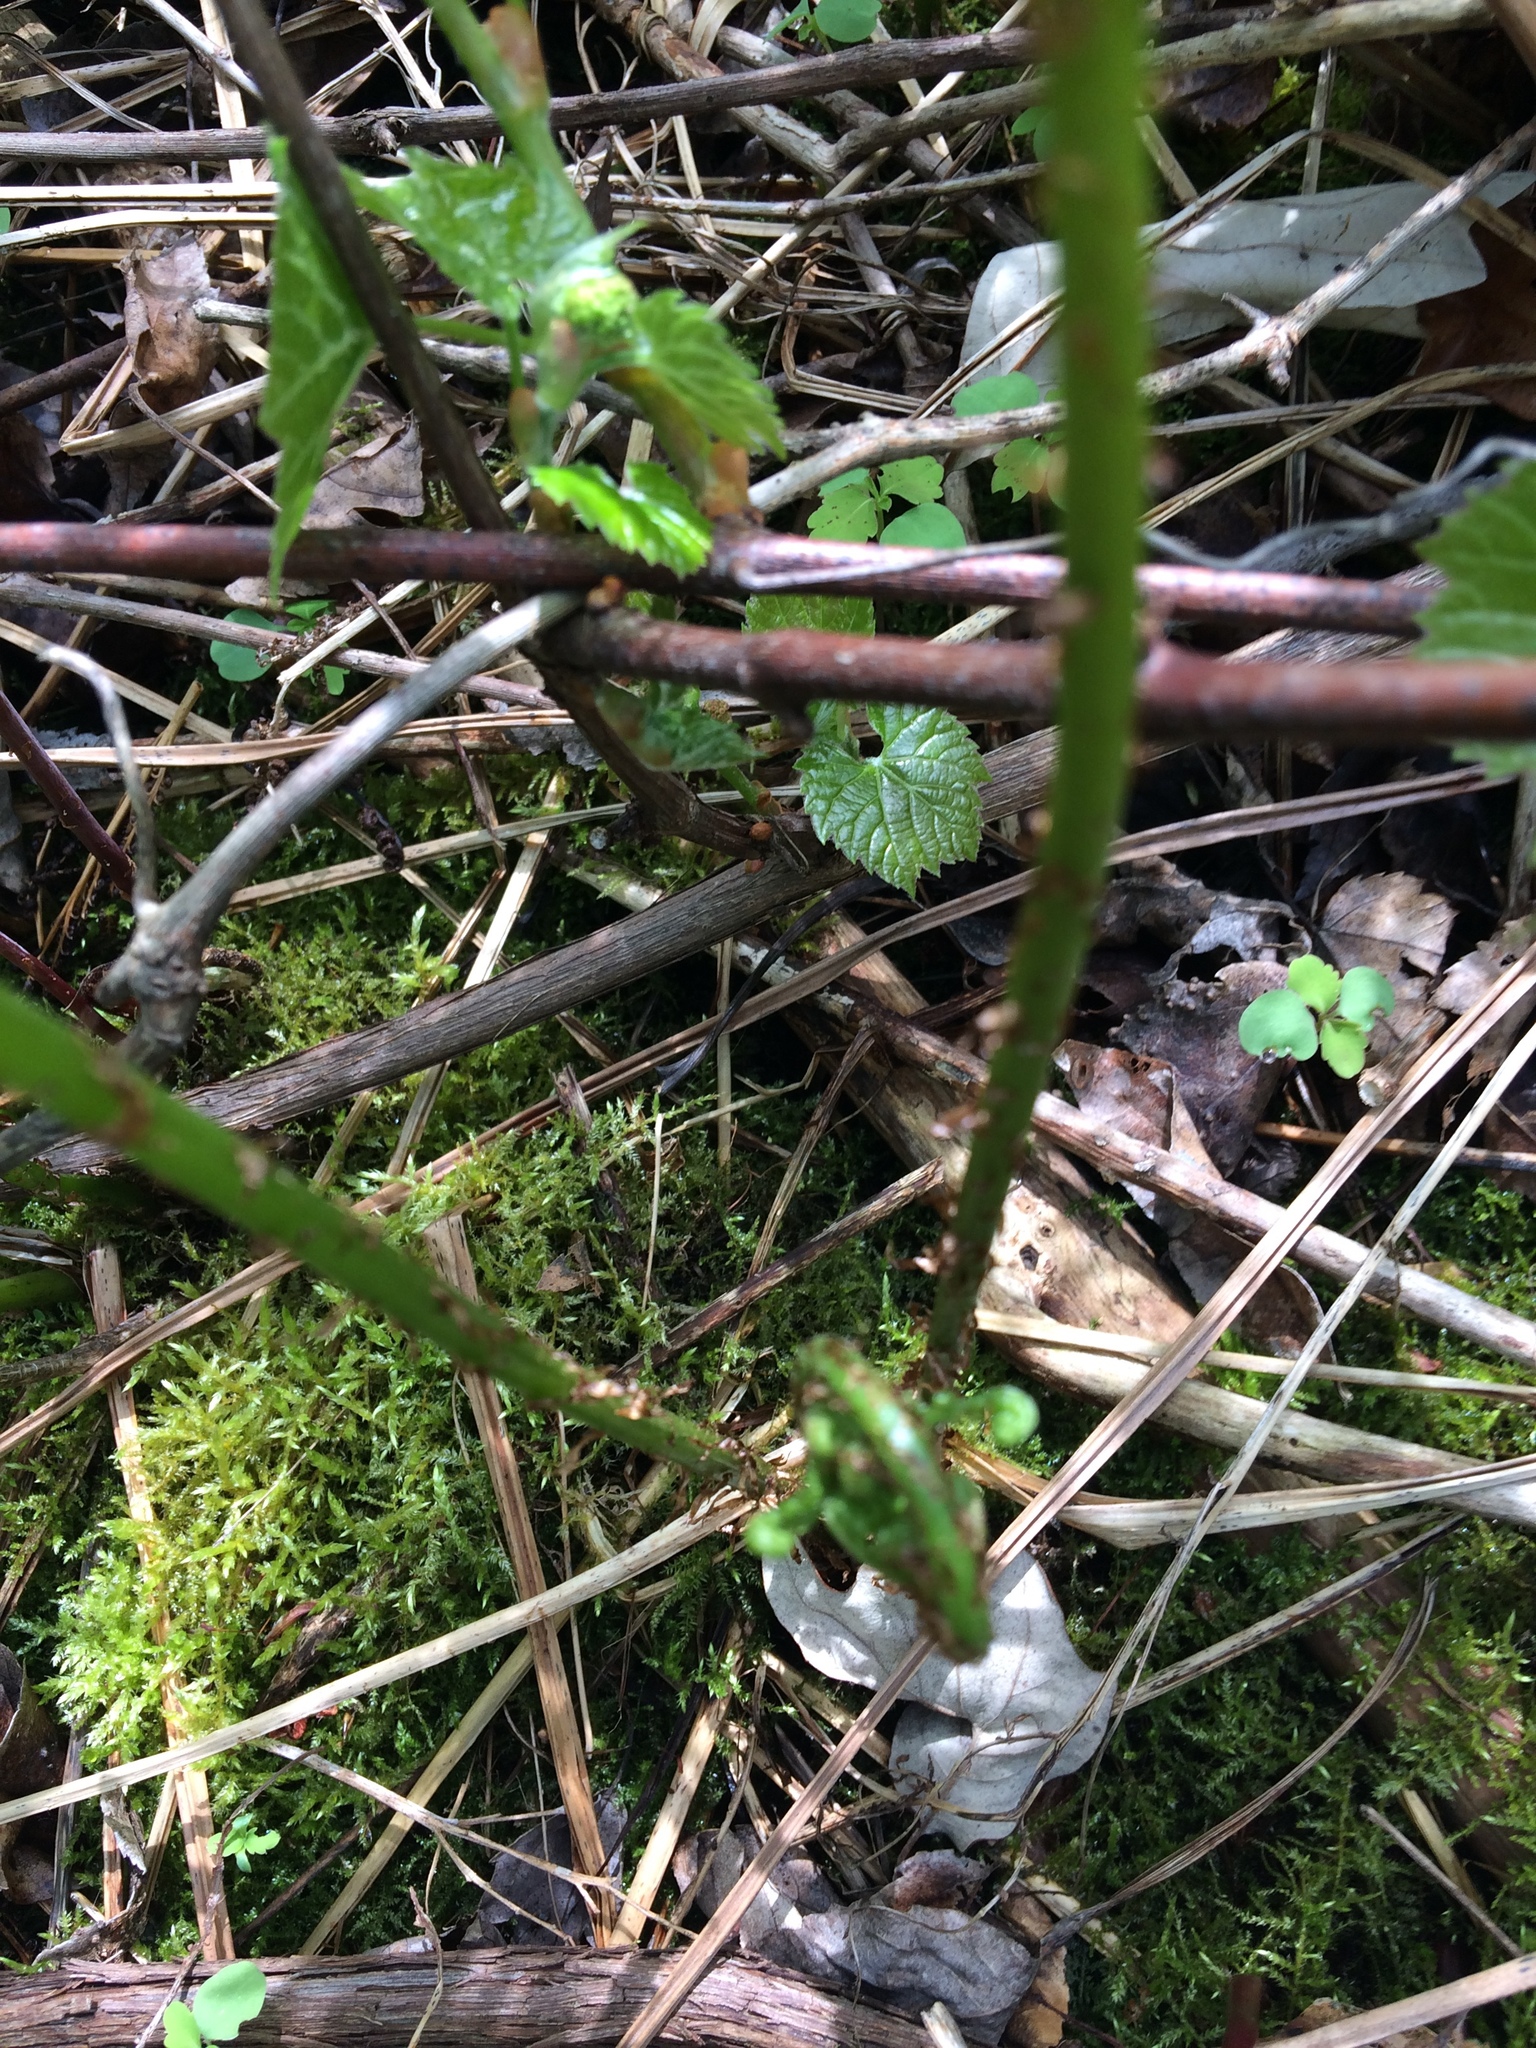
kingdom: Plantae
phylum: Tracheophyta
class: Polypodiopsida
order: Polypodiales
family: Athyriaceae
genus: Athyrium
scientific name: Athyrium angustum
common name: Northern lady fern
